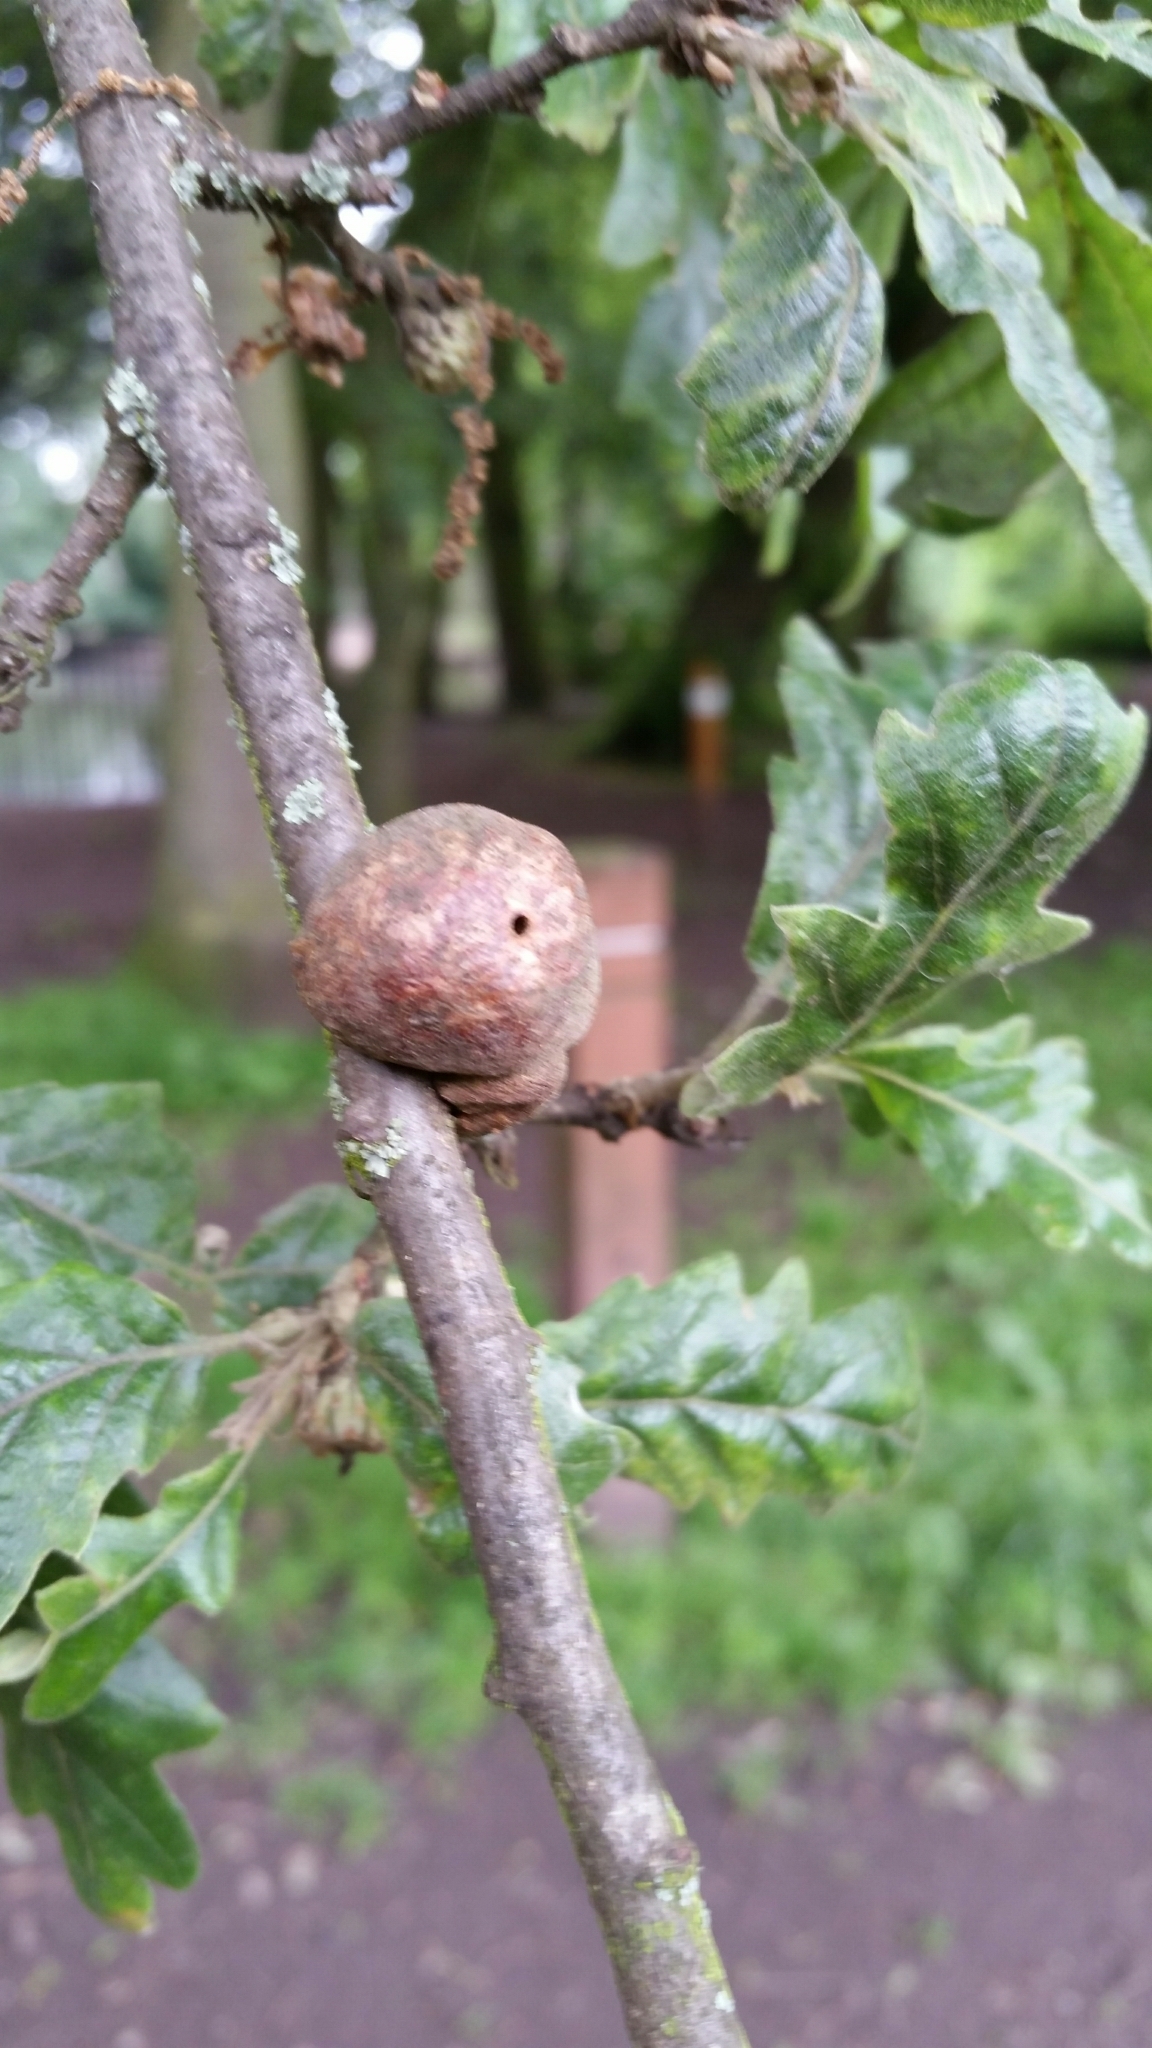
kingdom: Animalia
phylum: Arthropoda
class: Insecta
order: Hymenoptera
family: Cynipidae
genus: Aphelonyx
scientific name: Aphelonyx cerricola
